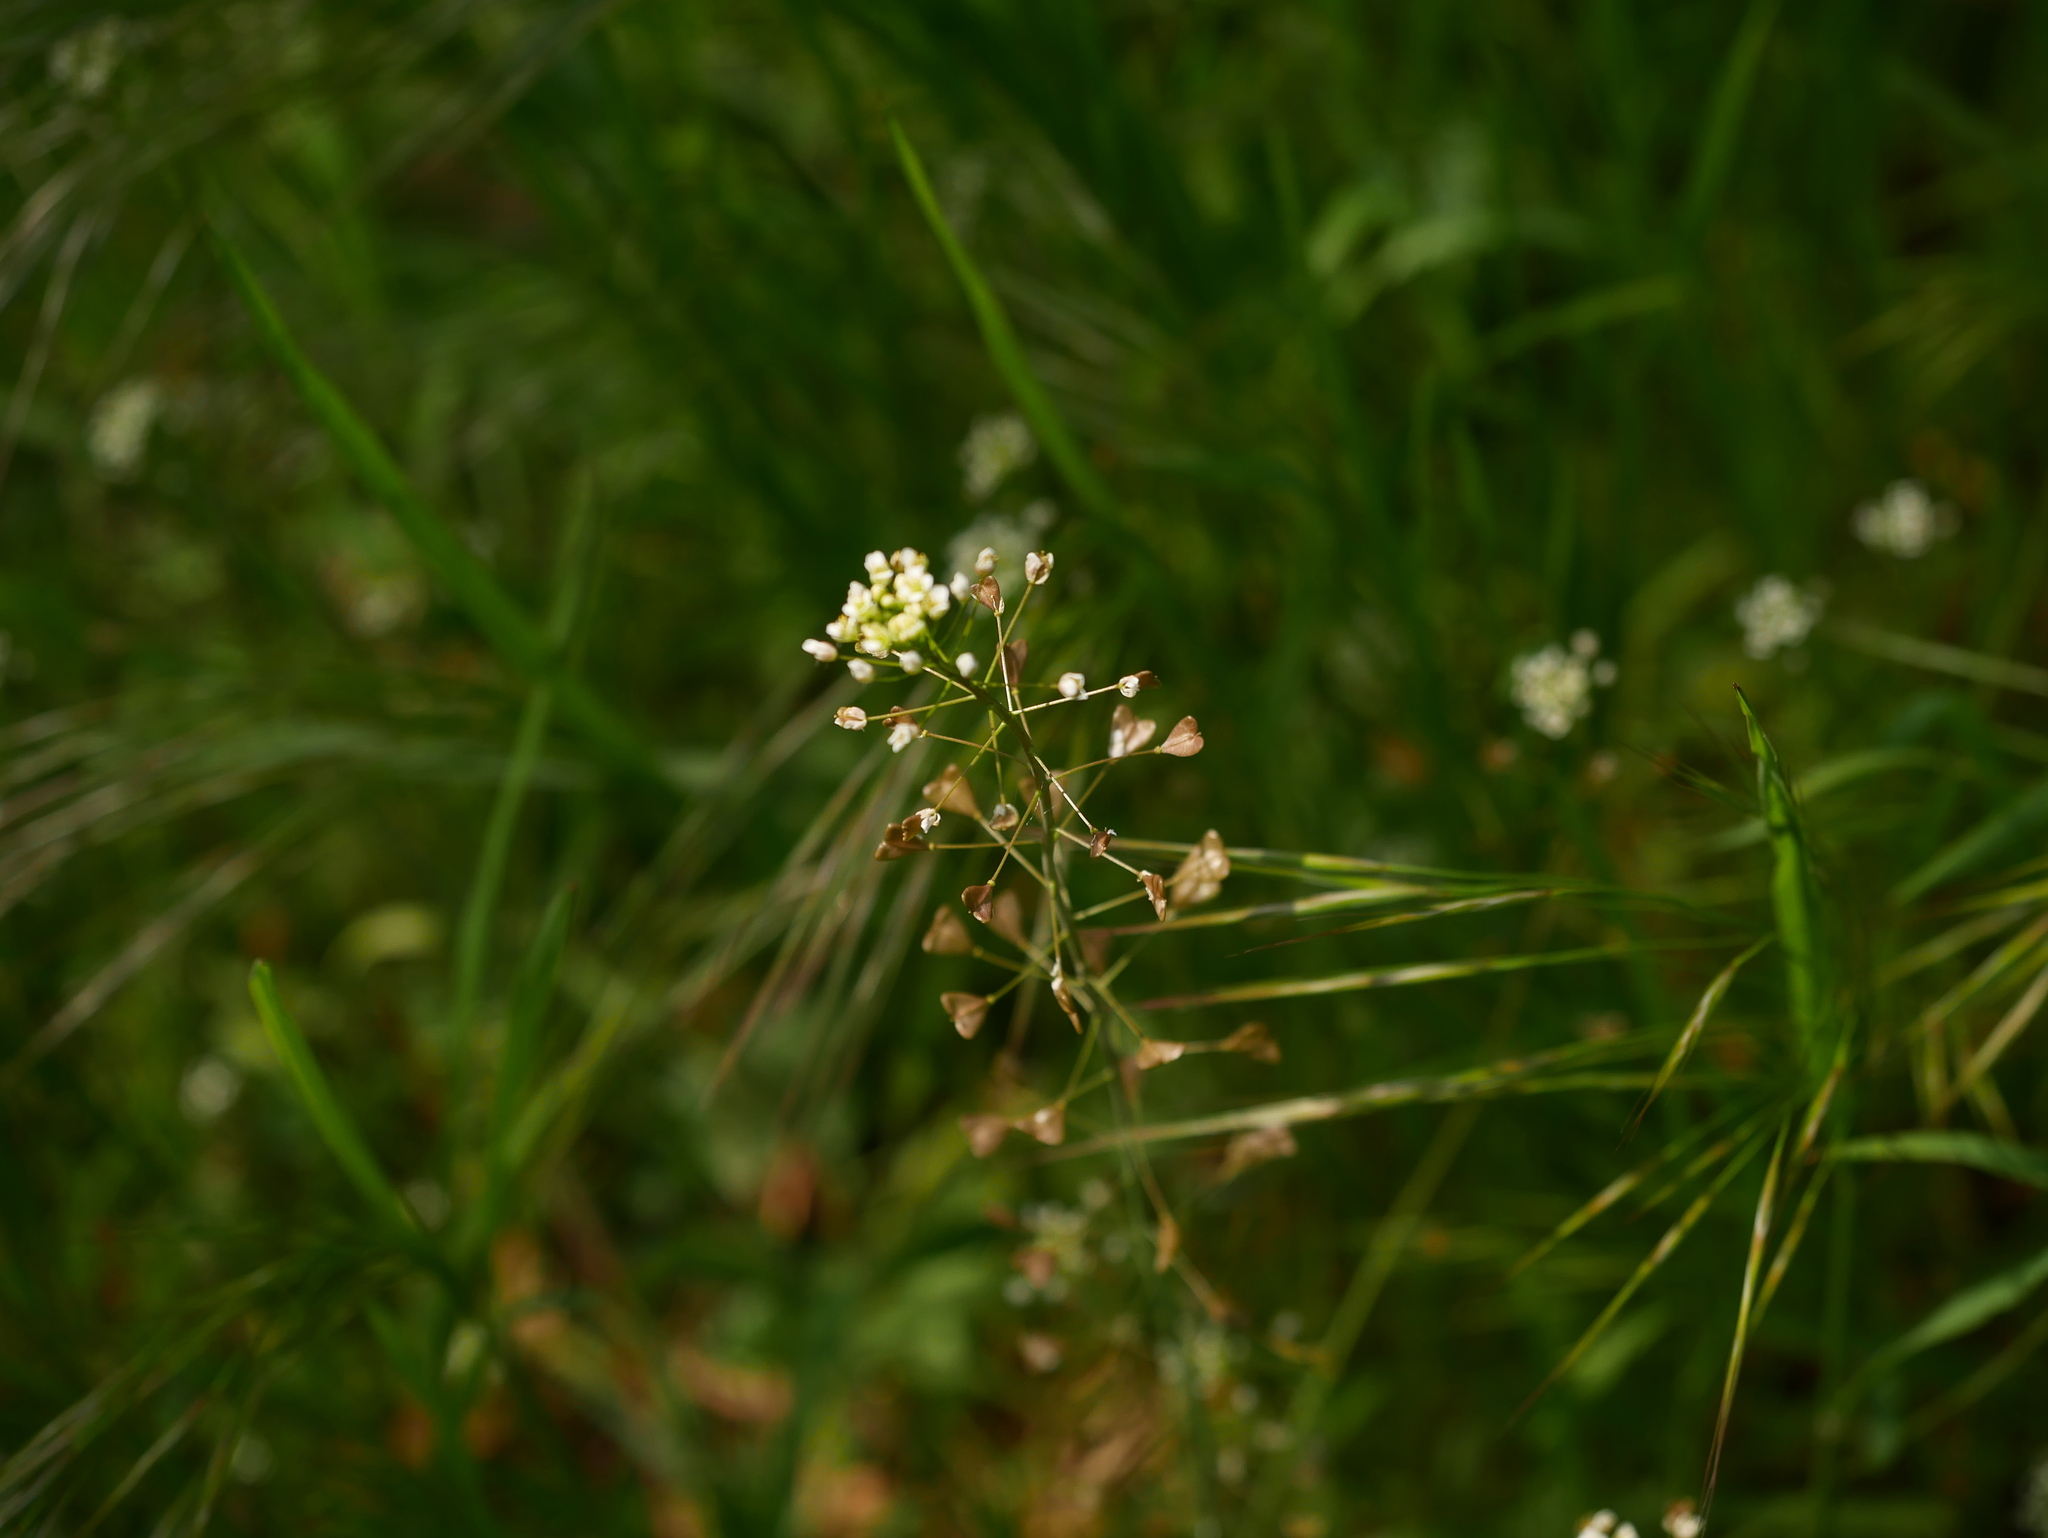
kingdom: Plantae
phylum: Tracheophyta
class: Magnoliopsida
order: Brassicales
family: Brassicaceae
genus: Capsella
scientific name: Capsella bursa-pastoris
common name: Shepherd's purse
